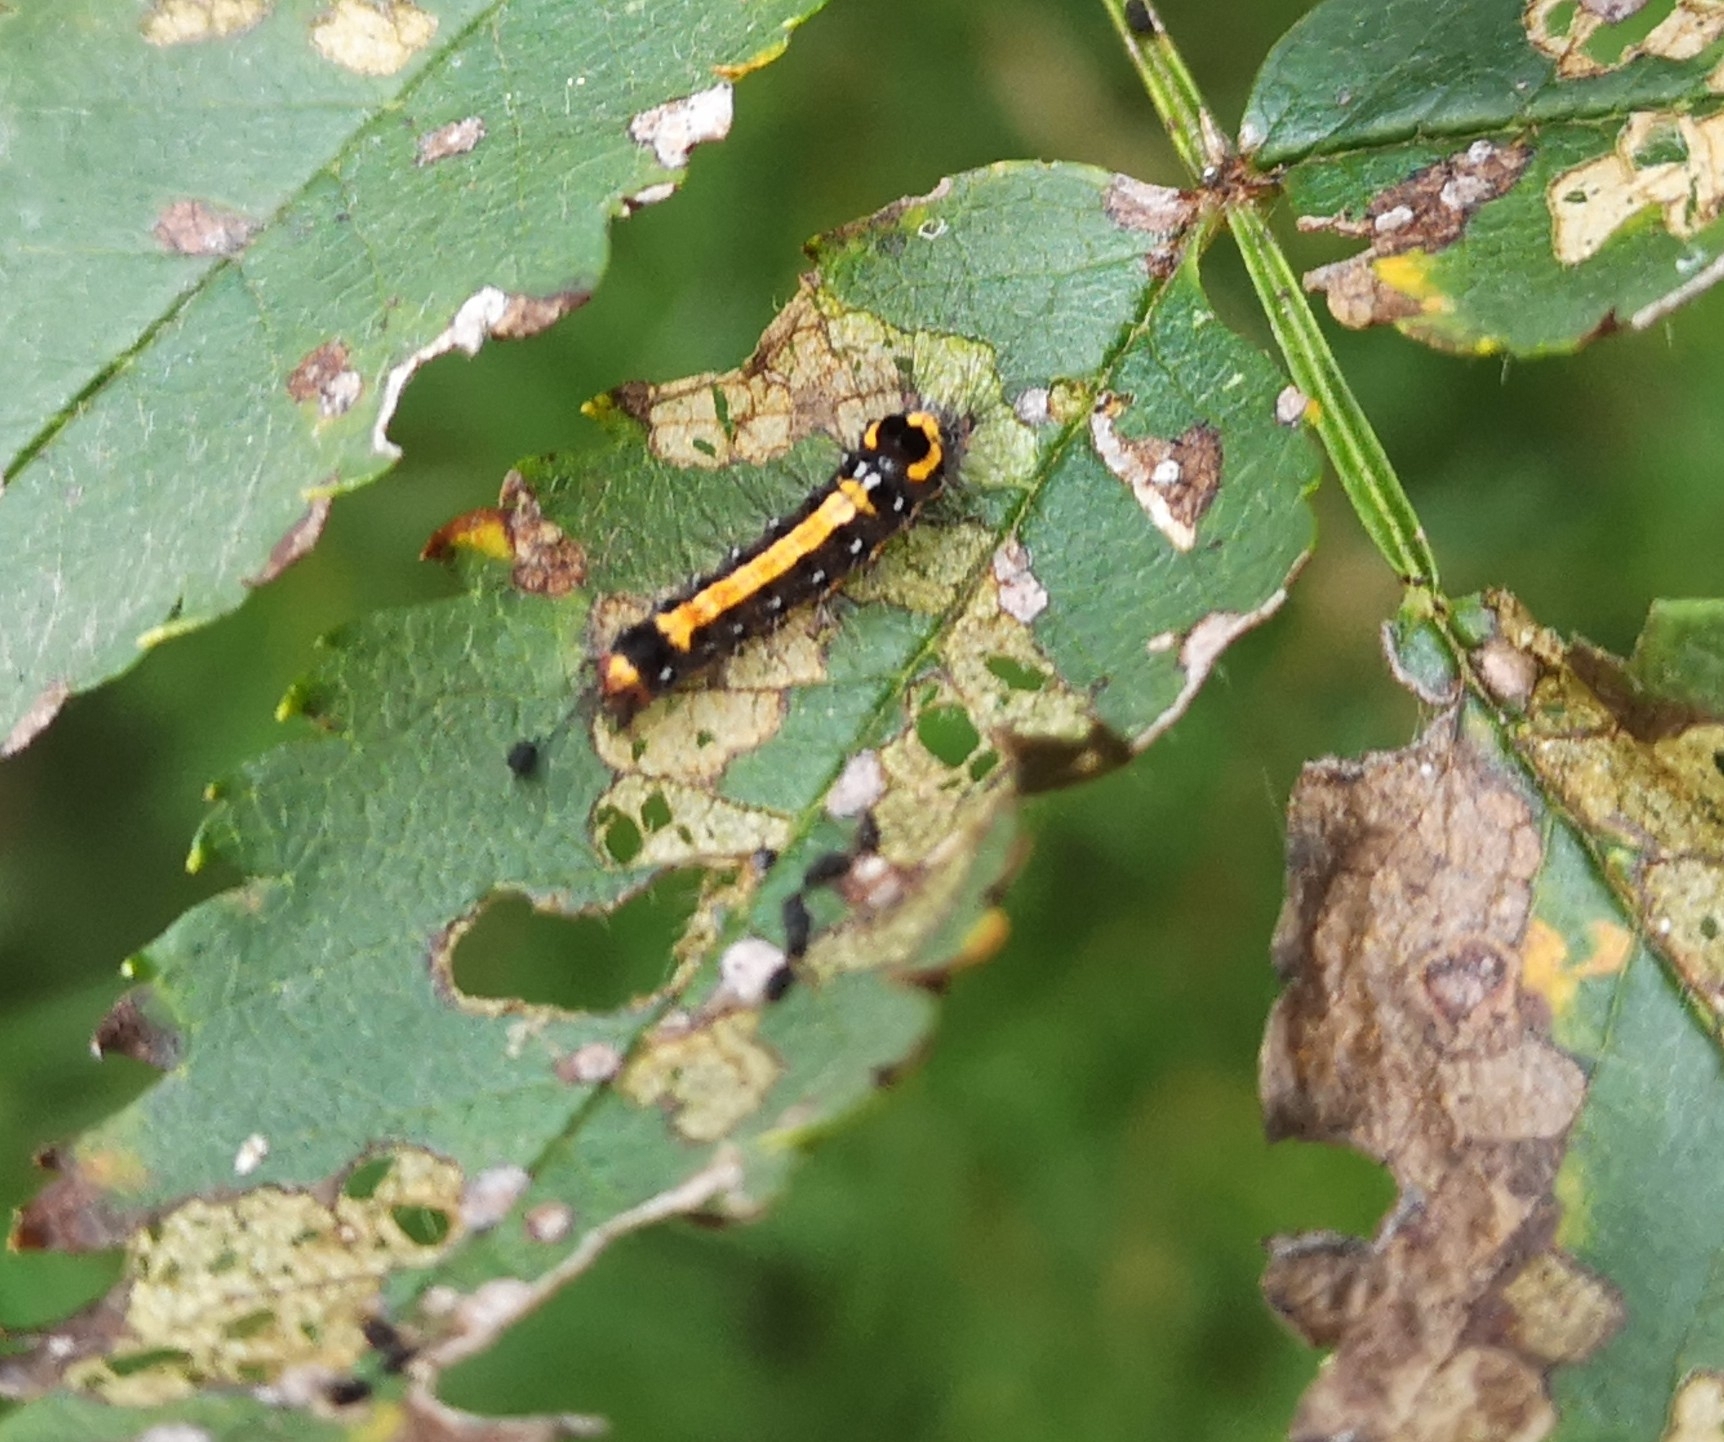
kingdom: Animalia
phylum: Arthropoda
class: Insecta
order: Lepidoptera
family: Erebidae
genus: Sphrageidus
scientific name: Sphrageidus similis
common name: Yellow-tail
